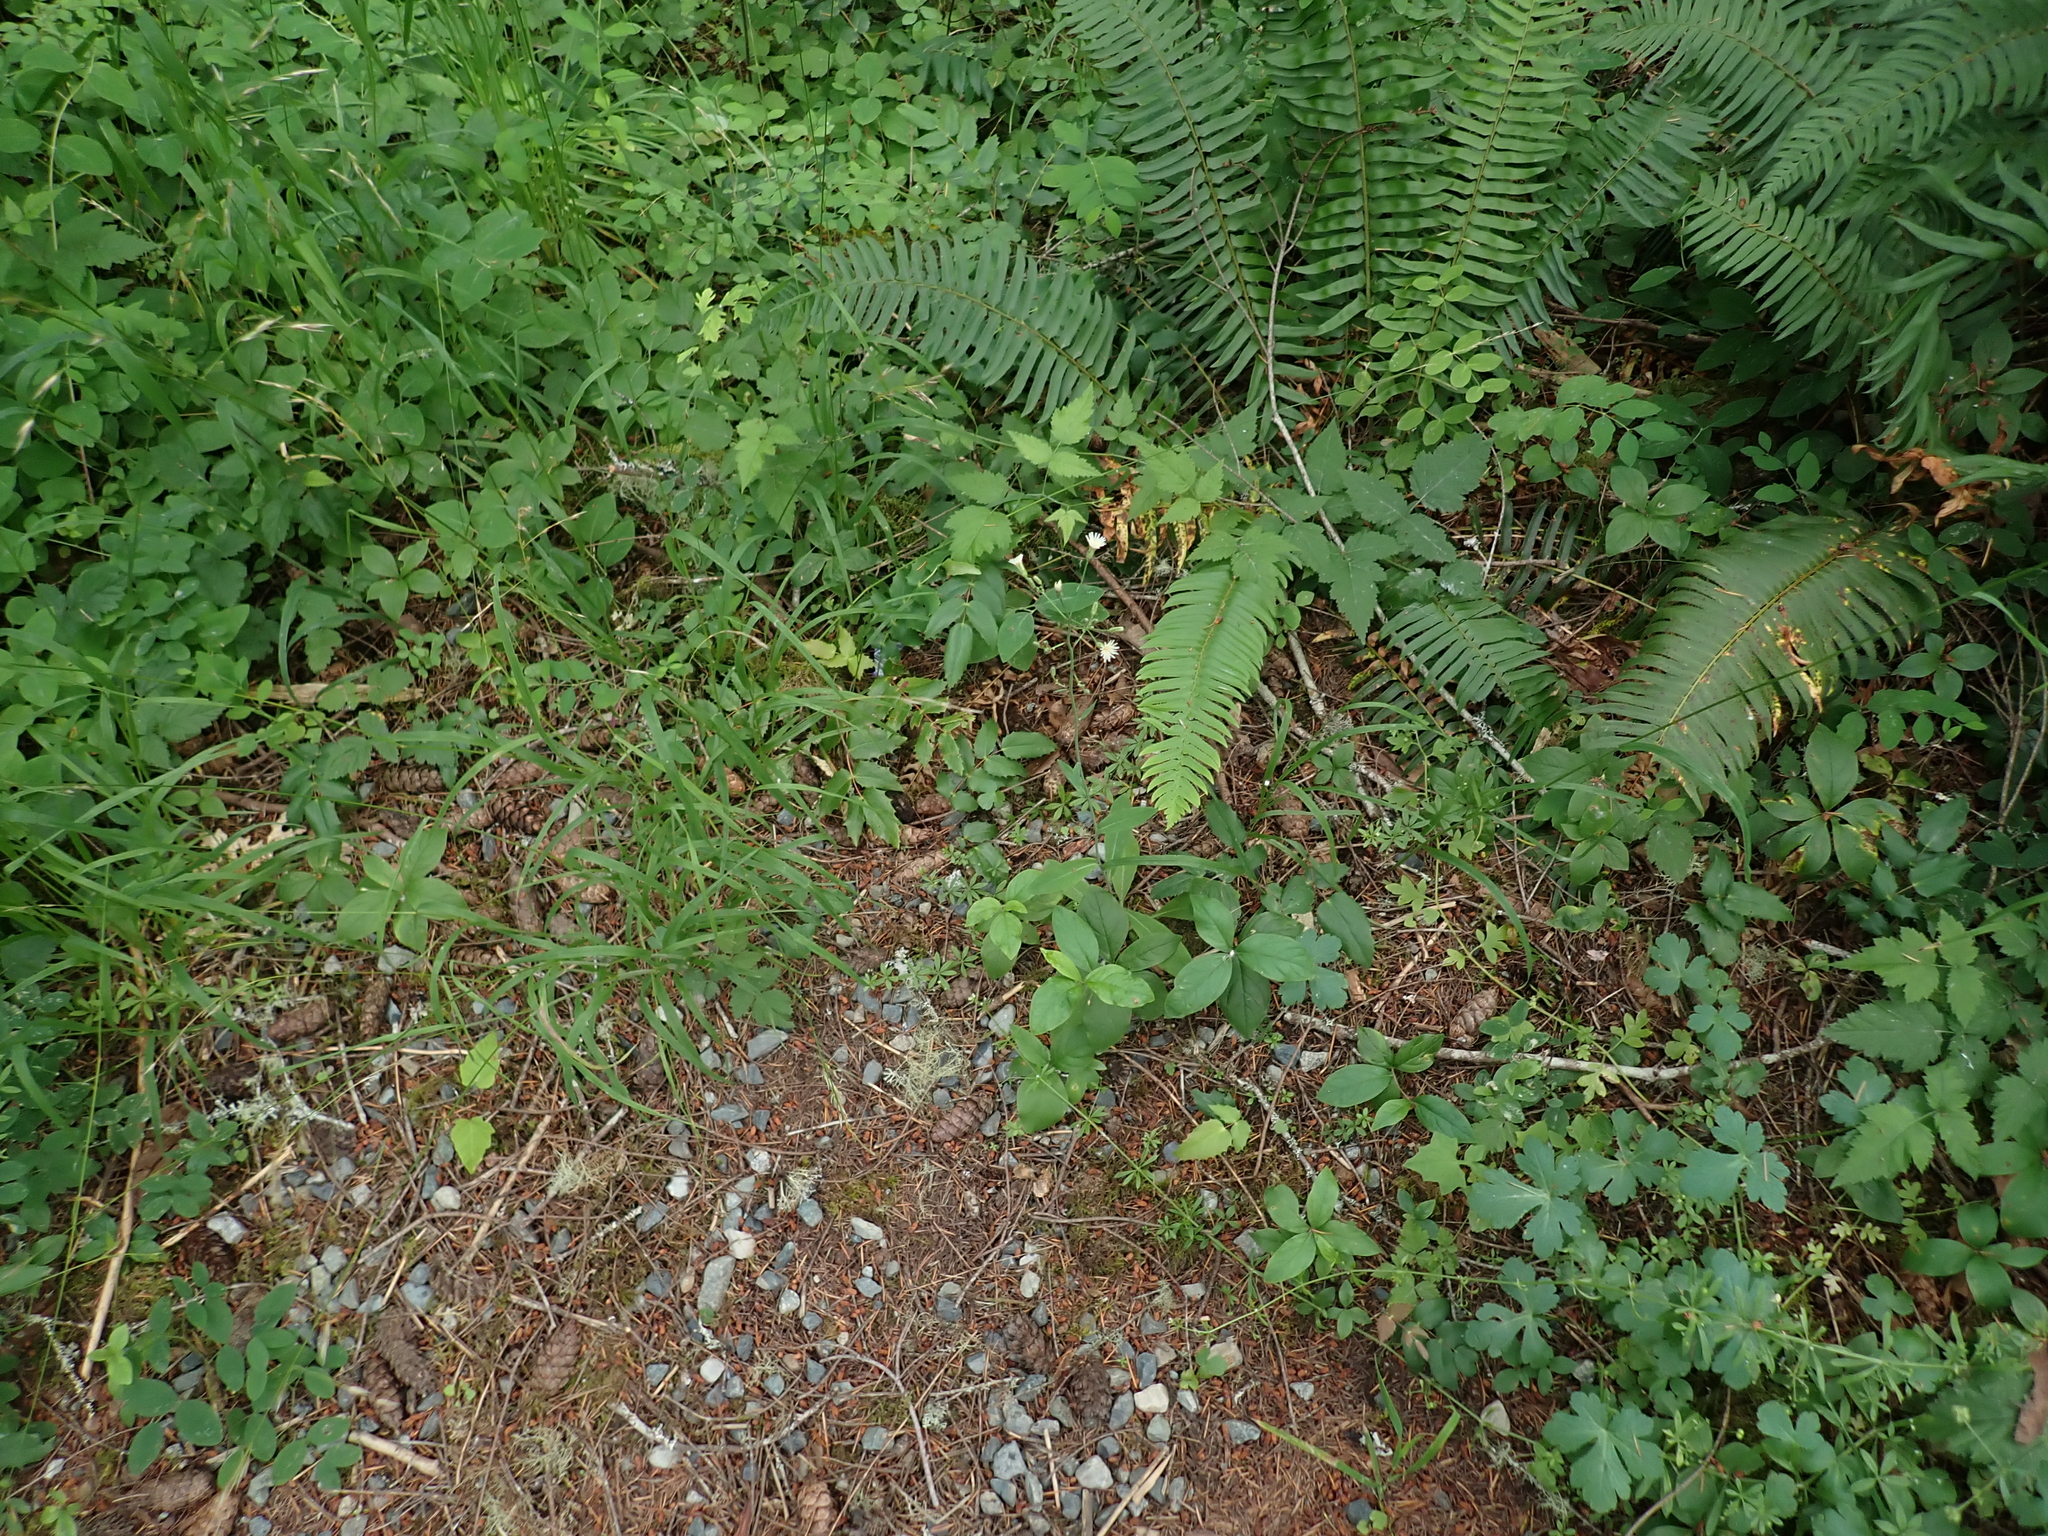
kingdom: Plantae
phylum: Tracheophyta
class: Magnoliopsida
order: Asterales
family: Asteraceae
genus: Hieracium
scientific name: Hieracium albiflorum
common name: White hawkweed
